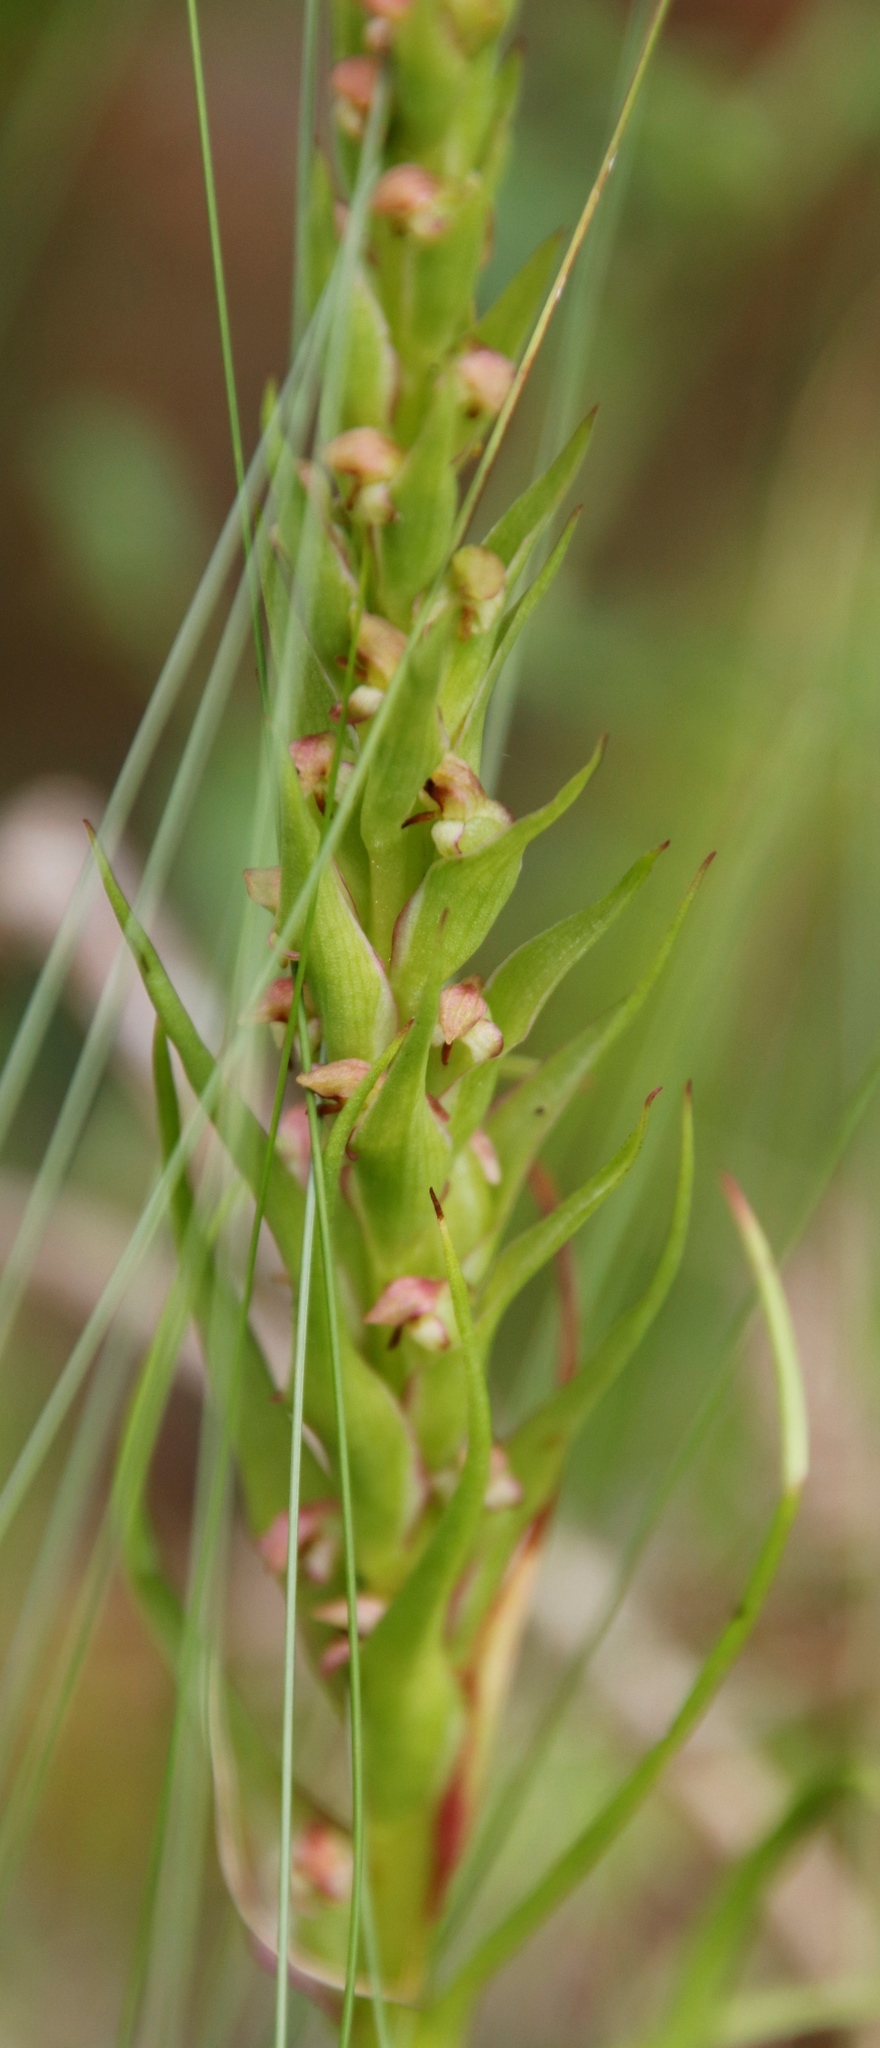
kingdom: Plantae
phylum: Tracheophyta
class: Liliopsida
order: Asparagales
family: Orchidaceae
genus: Disa
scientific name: Disa bracteata
